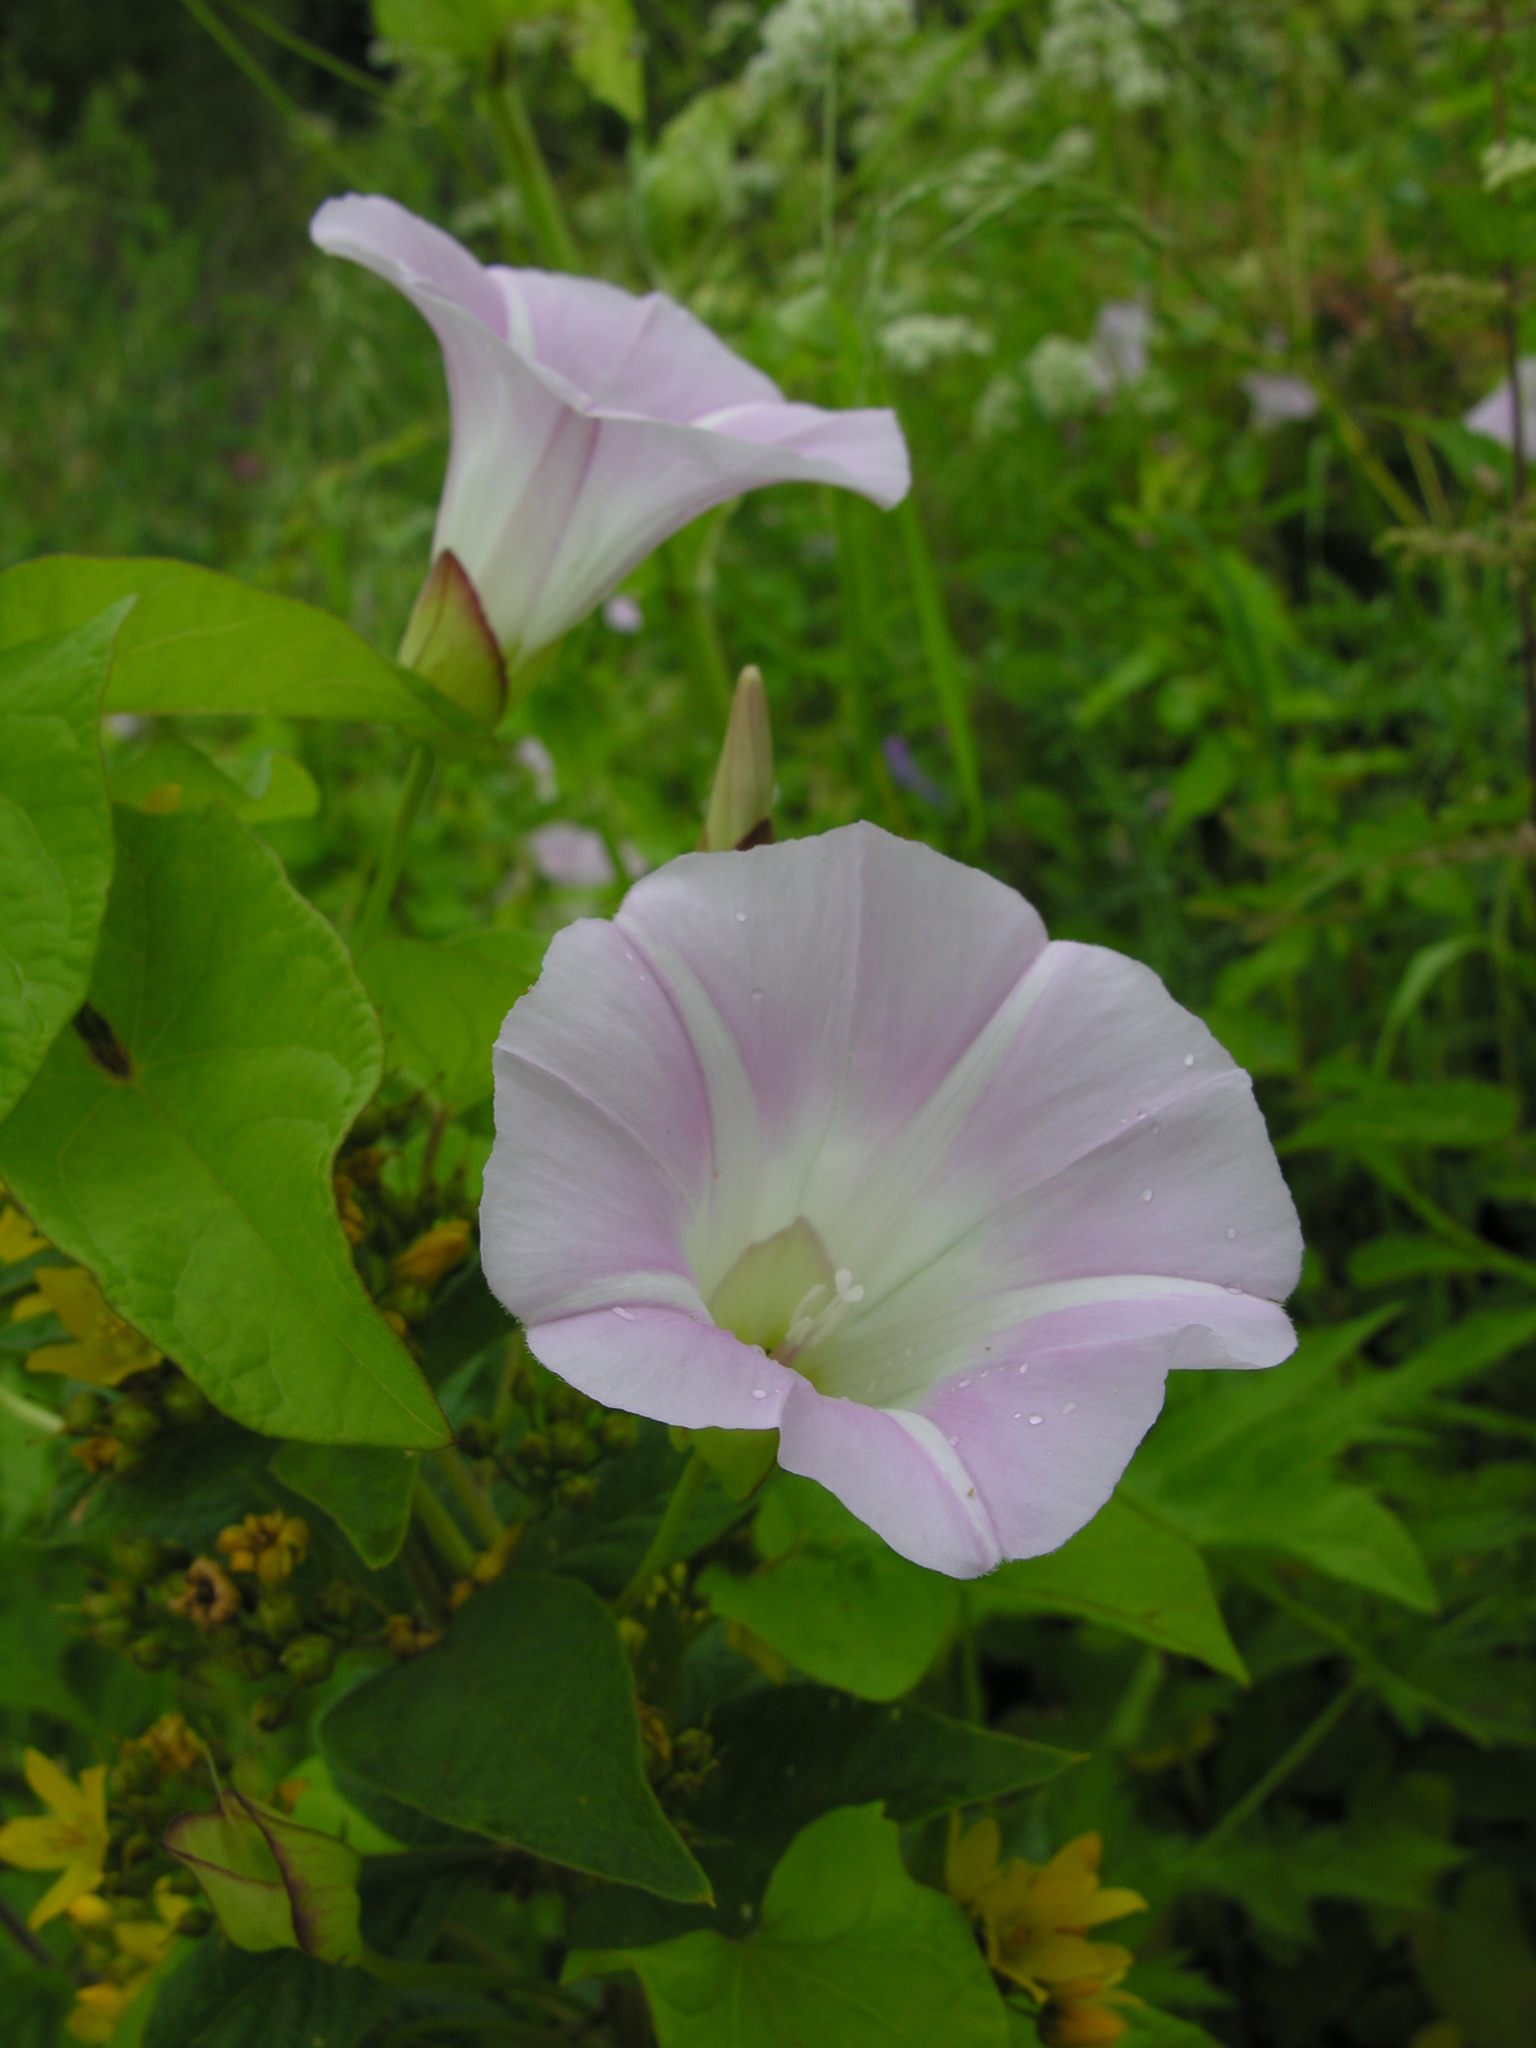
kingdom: Plantae
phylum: Tracheophyta
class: Magnoliopsida
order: Solanales
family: Convolvulaceae
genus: Calystegia
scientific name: Calystegia sepium
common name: Hedge bindweed
